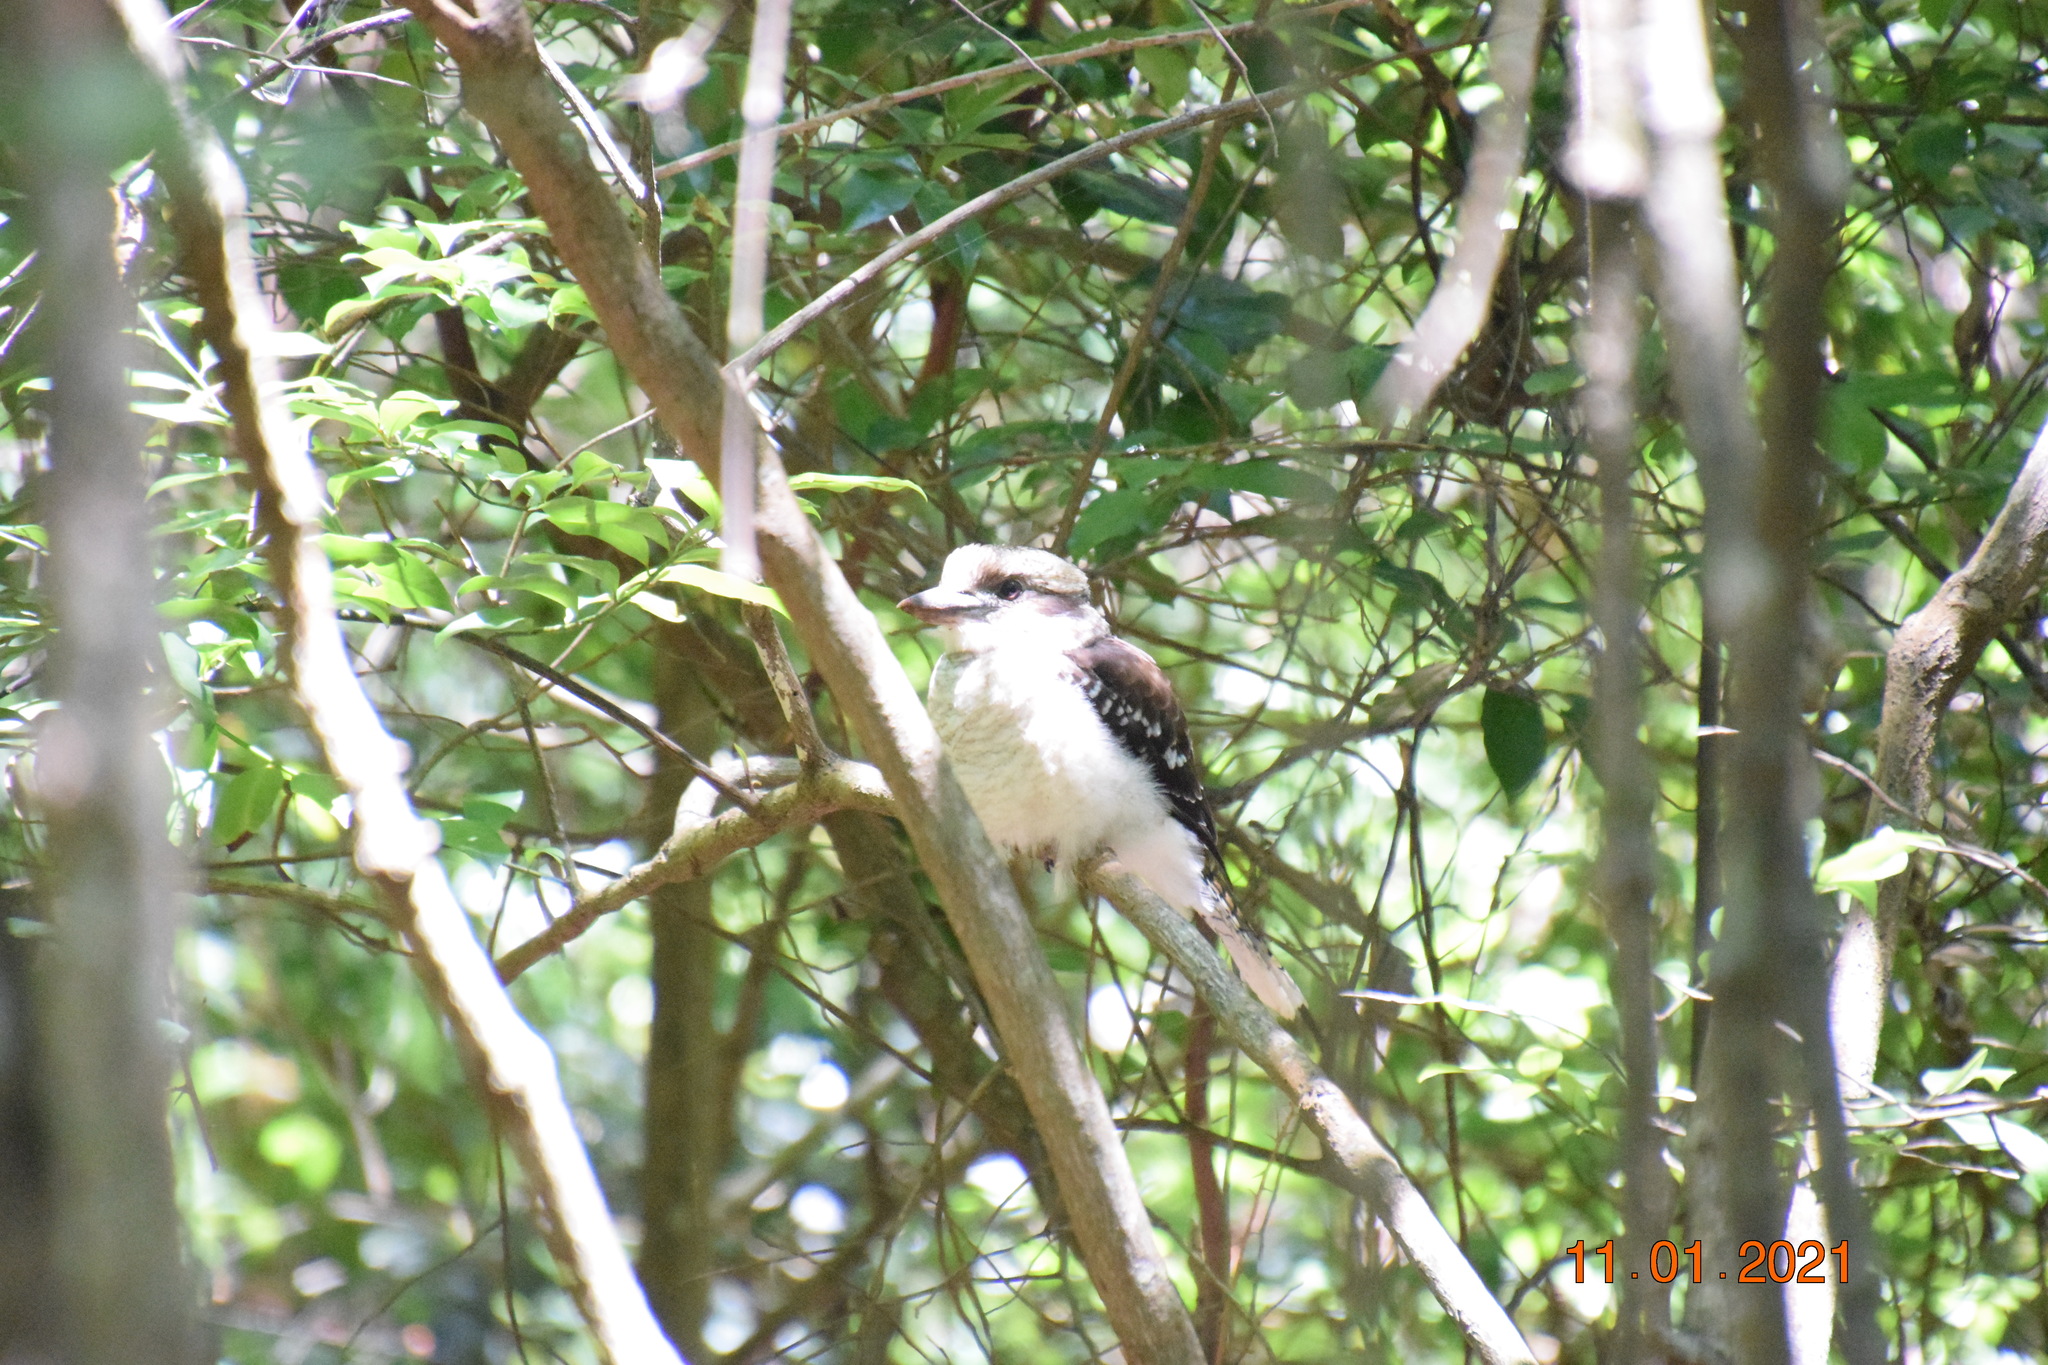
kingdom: Animalia
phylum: Chordata
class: Aves
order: Coraciiformes
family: Alcedinidae
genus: Dacelo
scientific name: Dacelo novaeguineae
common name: Laughing kookaburra
